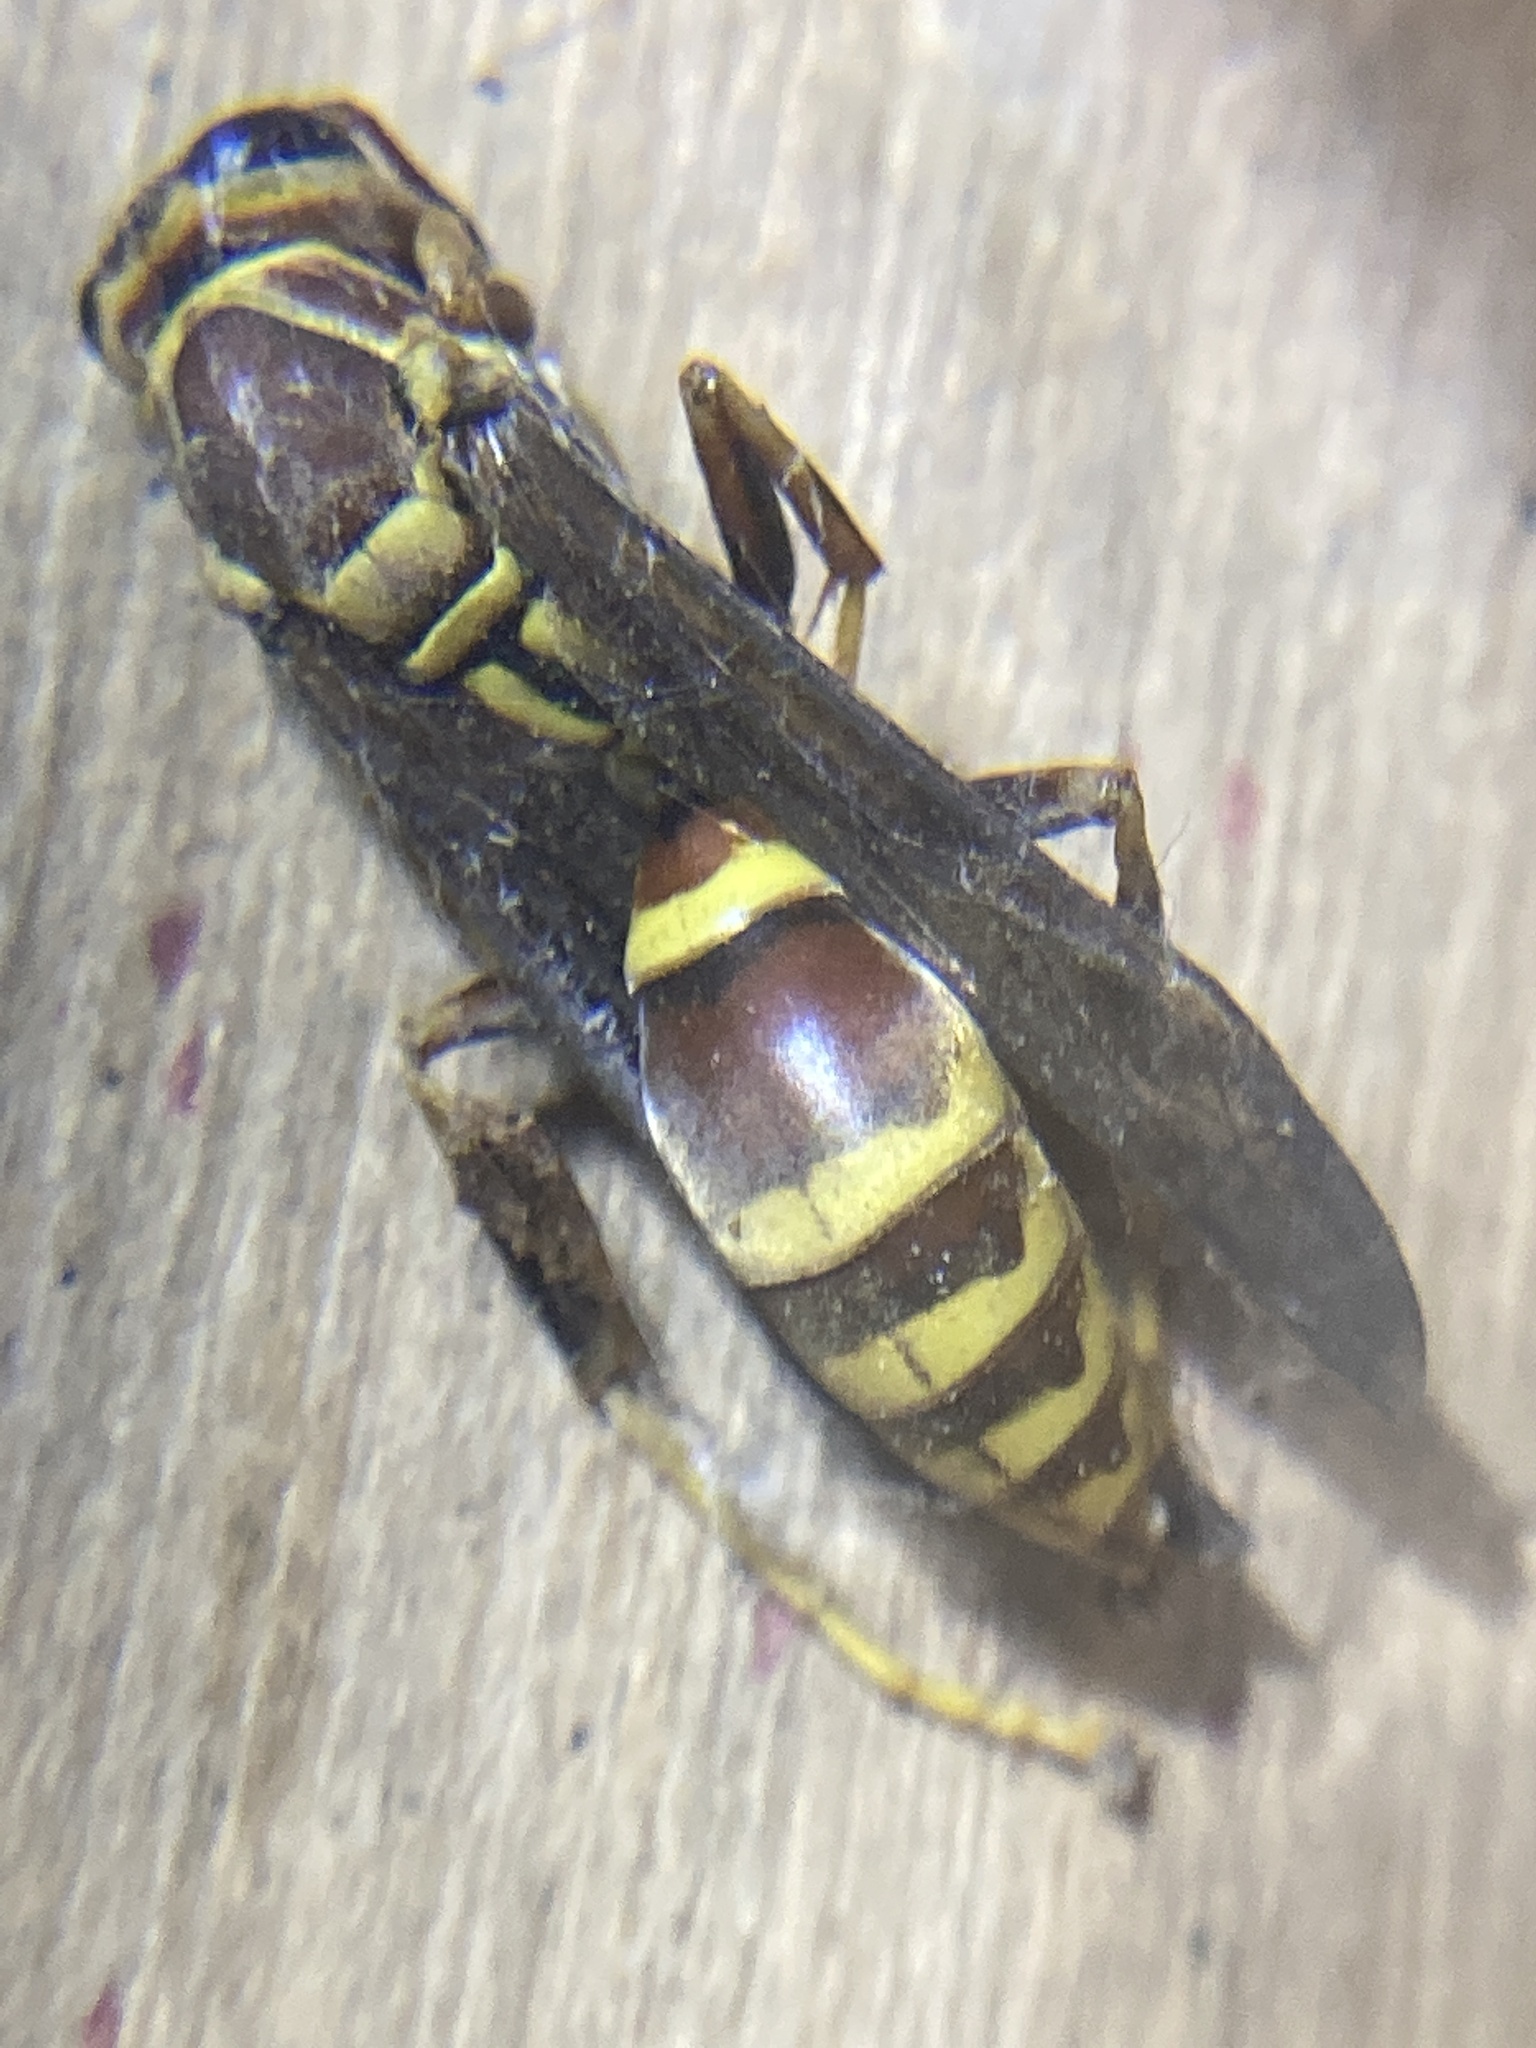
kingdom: Animalia
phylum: Arthropoda
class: Insecta
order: Hymenoptera
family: Eumenidae
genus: Polistes
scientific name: Polistes exclamans
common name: Paper wasp
